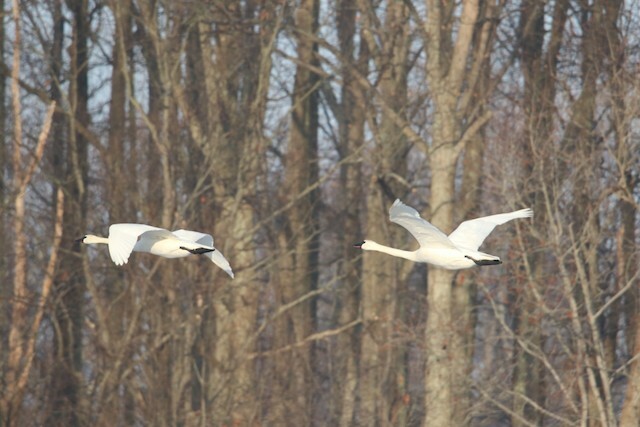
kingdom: Animalia
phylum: Chordata
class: Aves
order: Anseriformes
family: Anatidae
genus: Cygnus
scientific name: Cygnus buccinator
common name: Trumpeter swan
